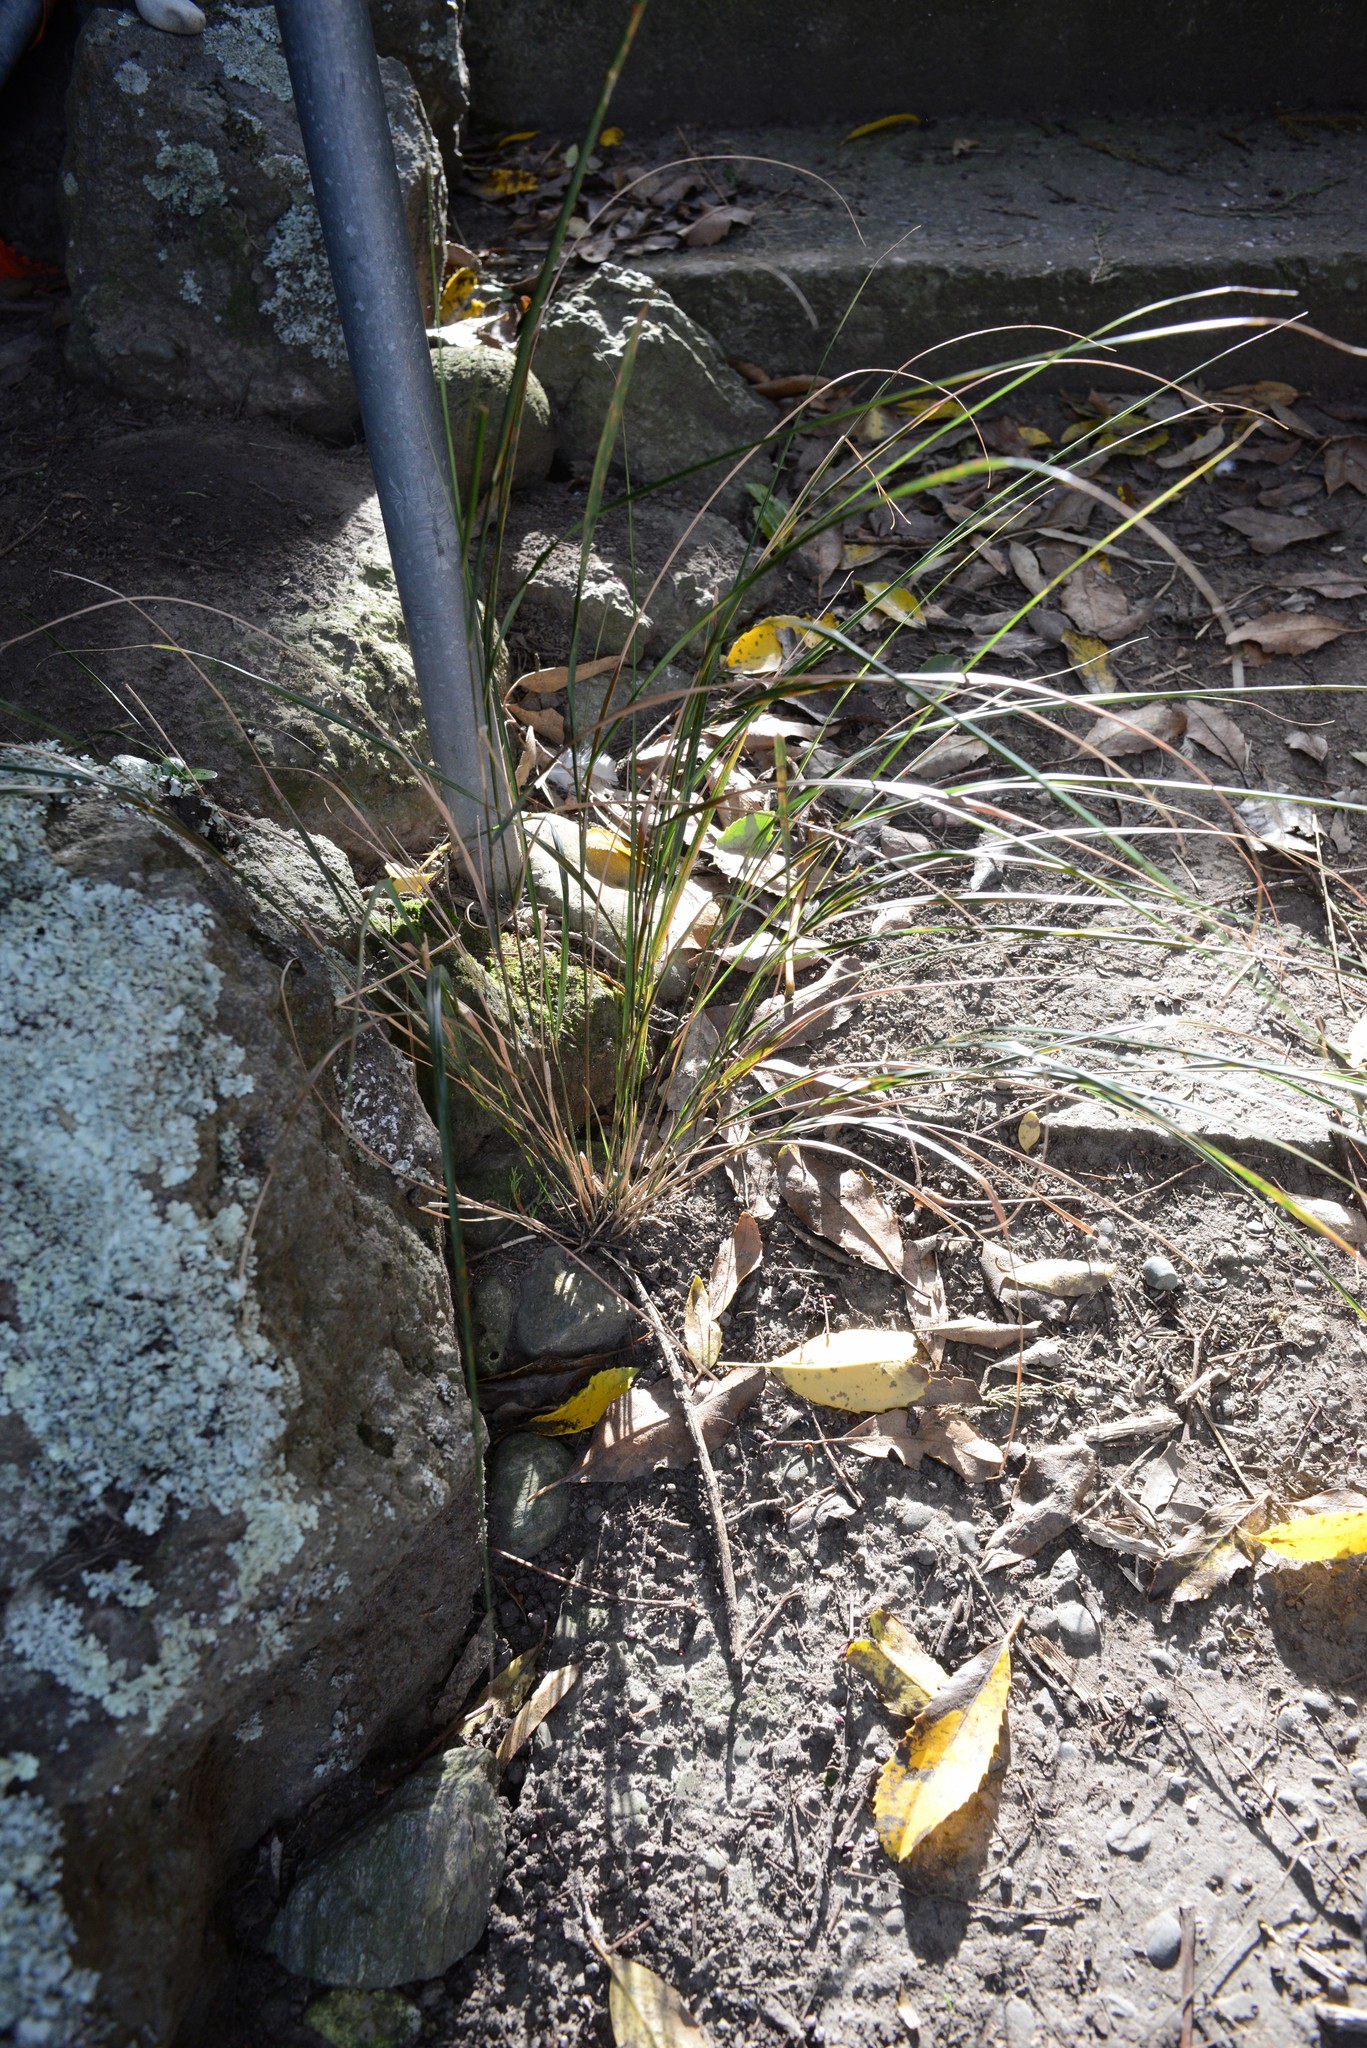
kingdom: Plantae
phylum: Tracheophyta
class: Liliopsida
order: Poales
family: Poaceae
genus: Anemanthele
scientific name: Anemanthele lessoniana
